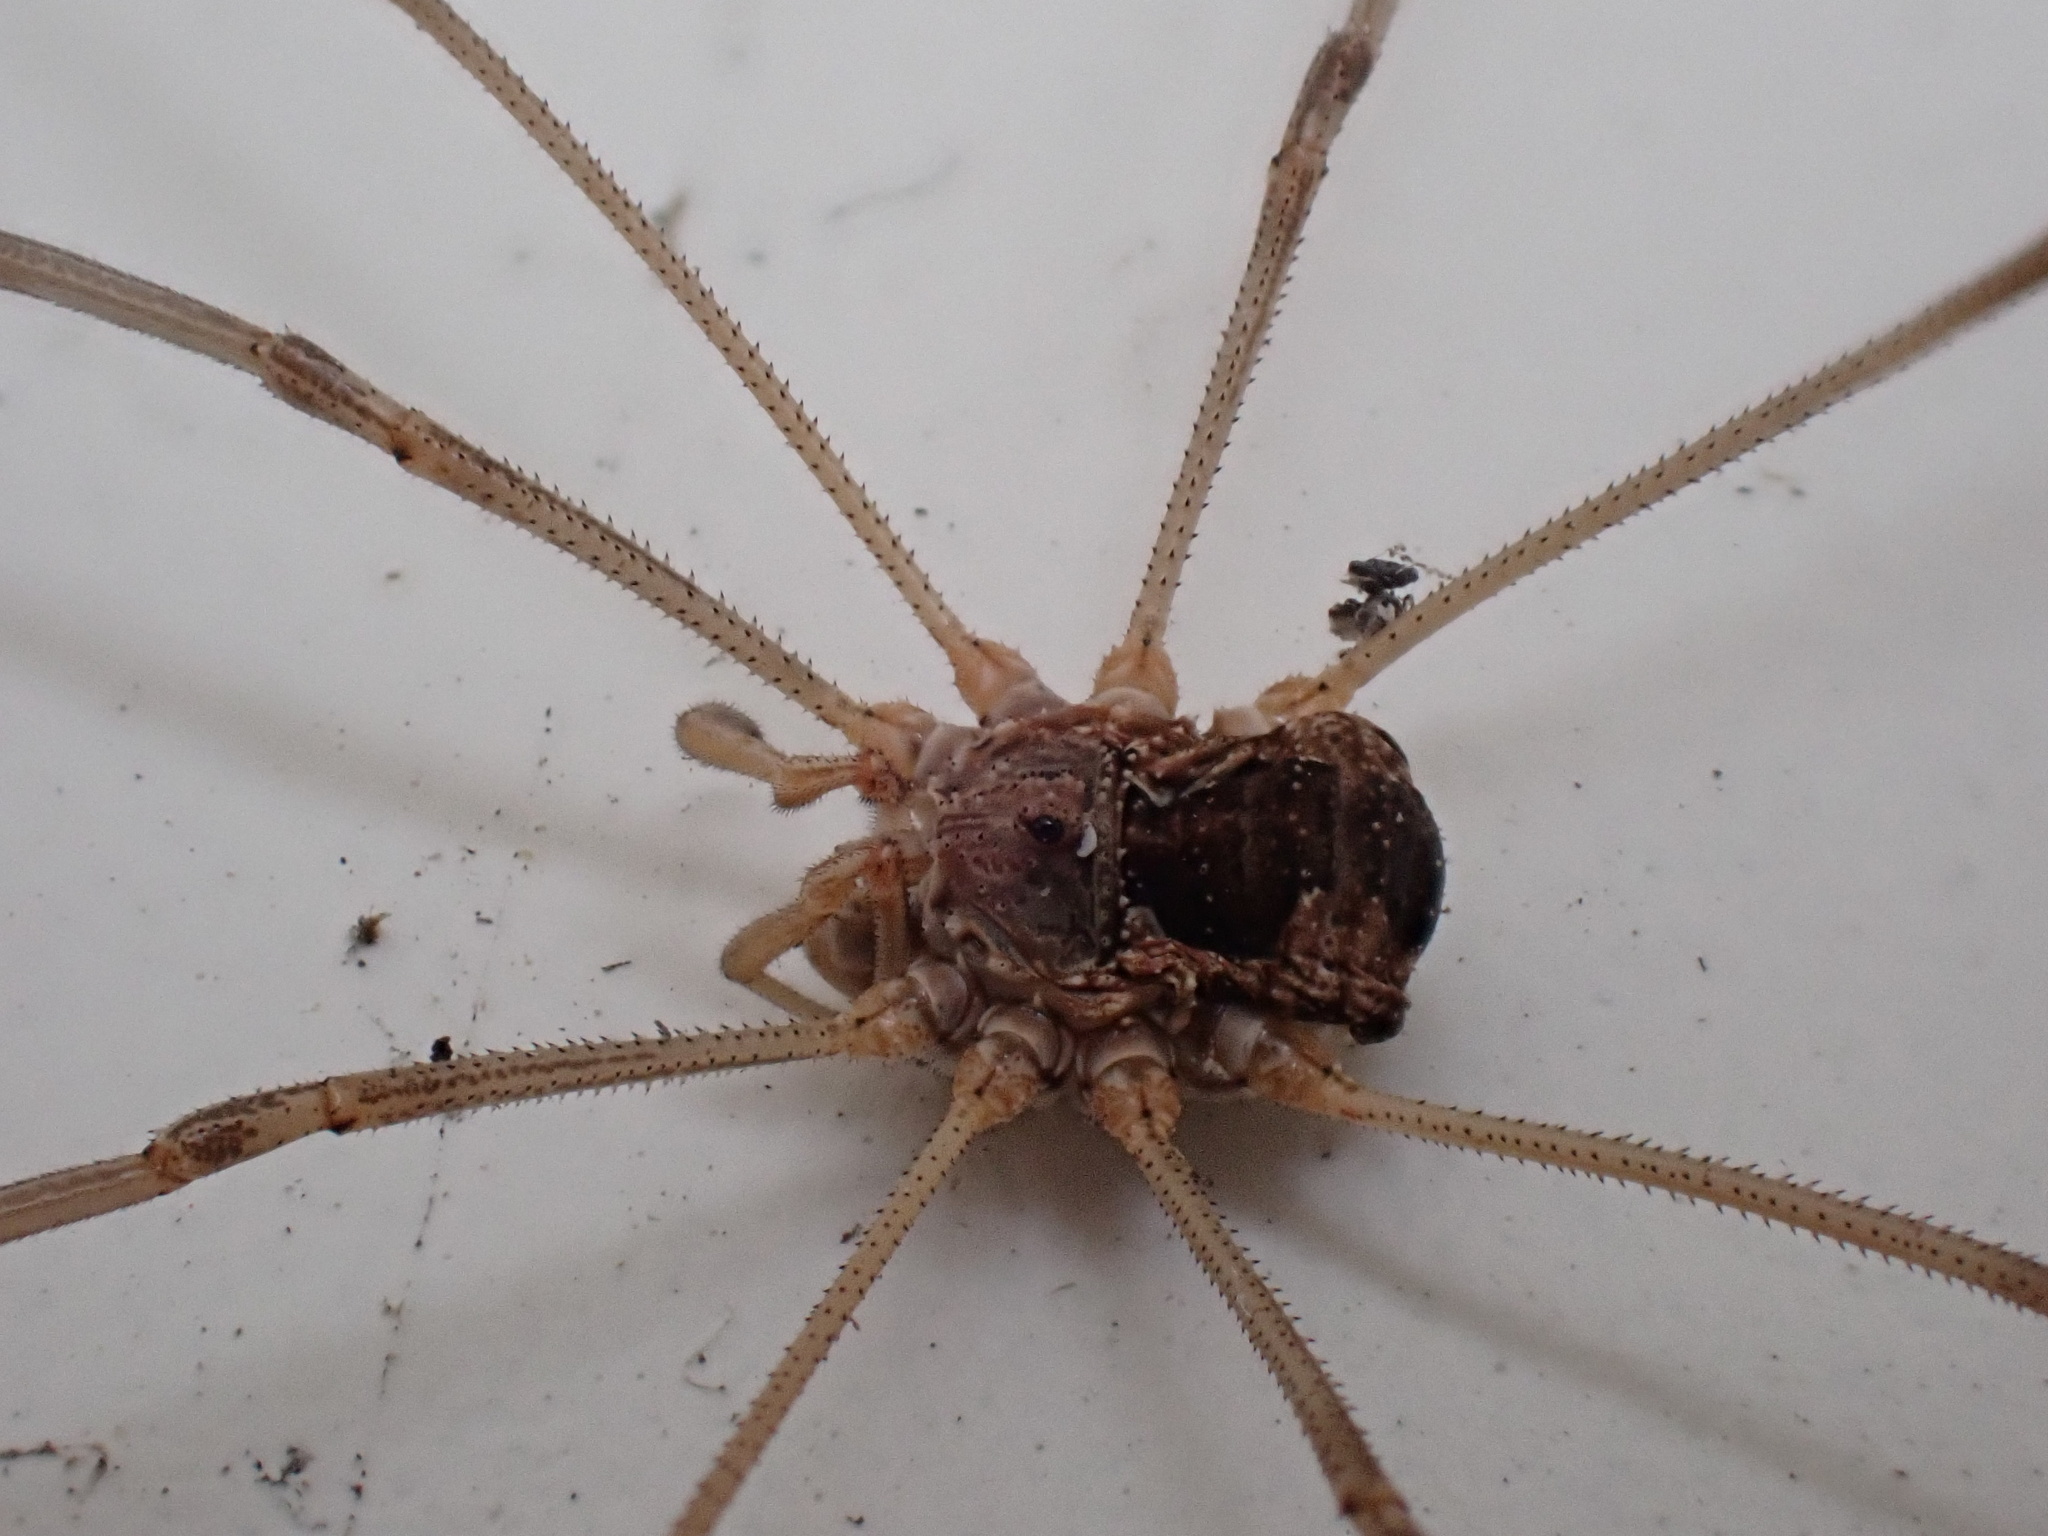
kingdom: Animalia
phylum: Arthropoda
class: Arachnida
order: Opiliones
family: Phalangiidae
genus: Phalangium
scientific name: Phalangium opilio
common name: Daddy longleg
